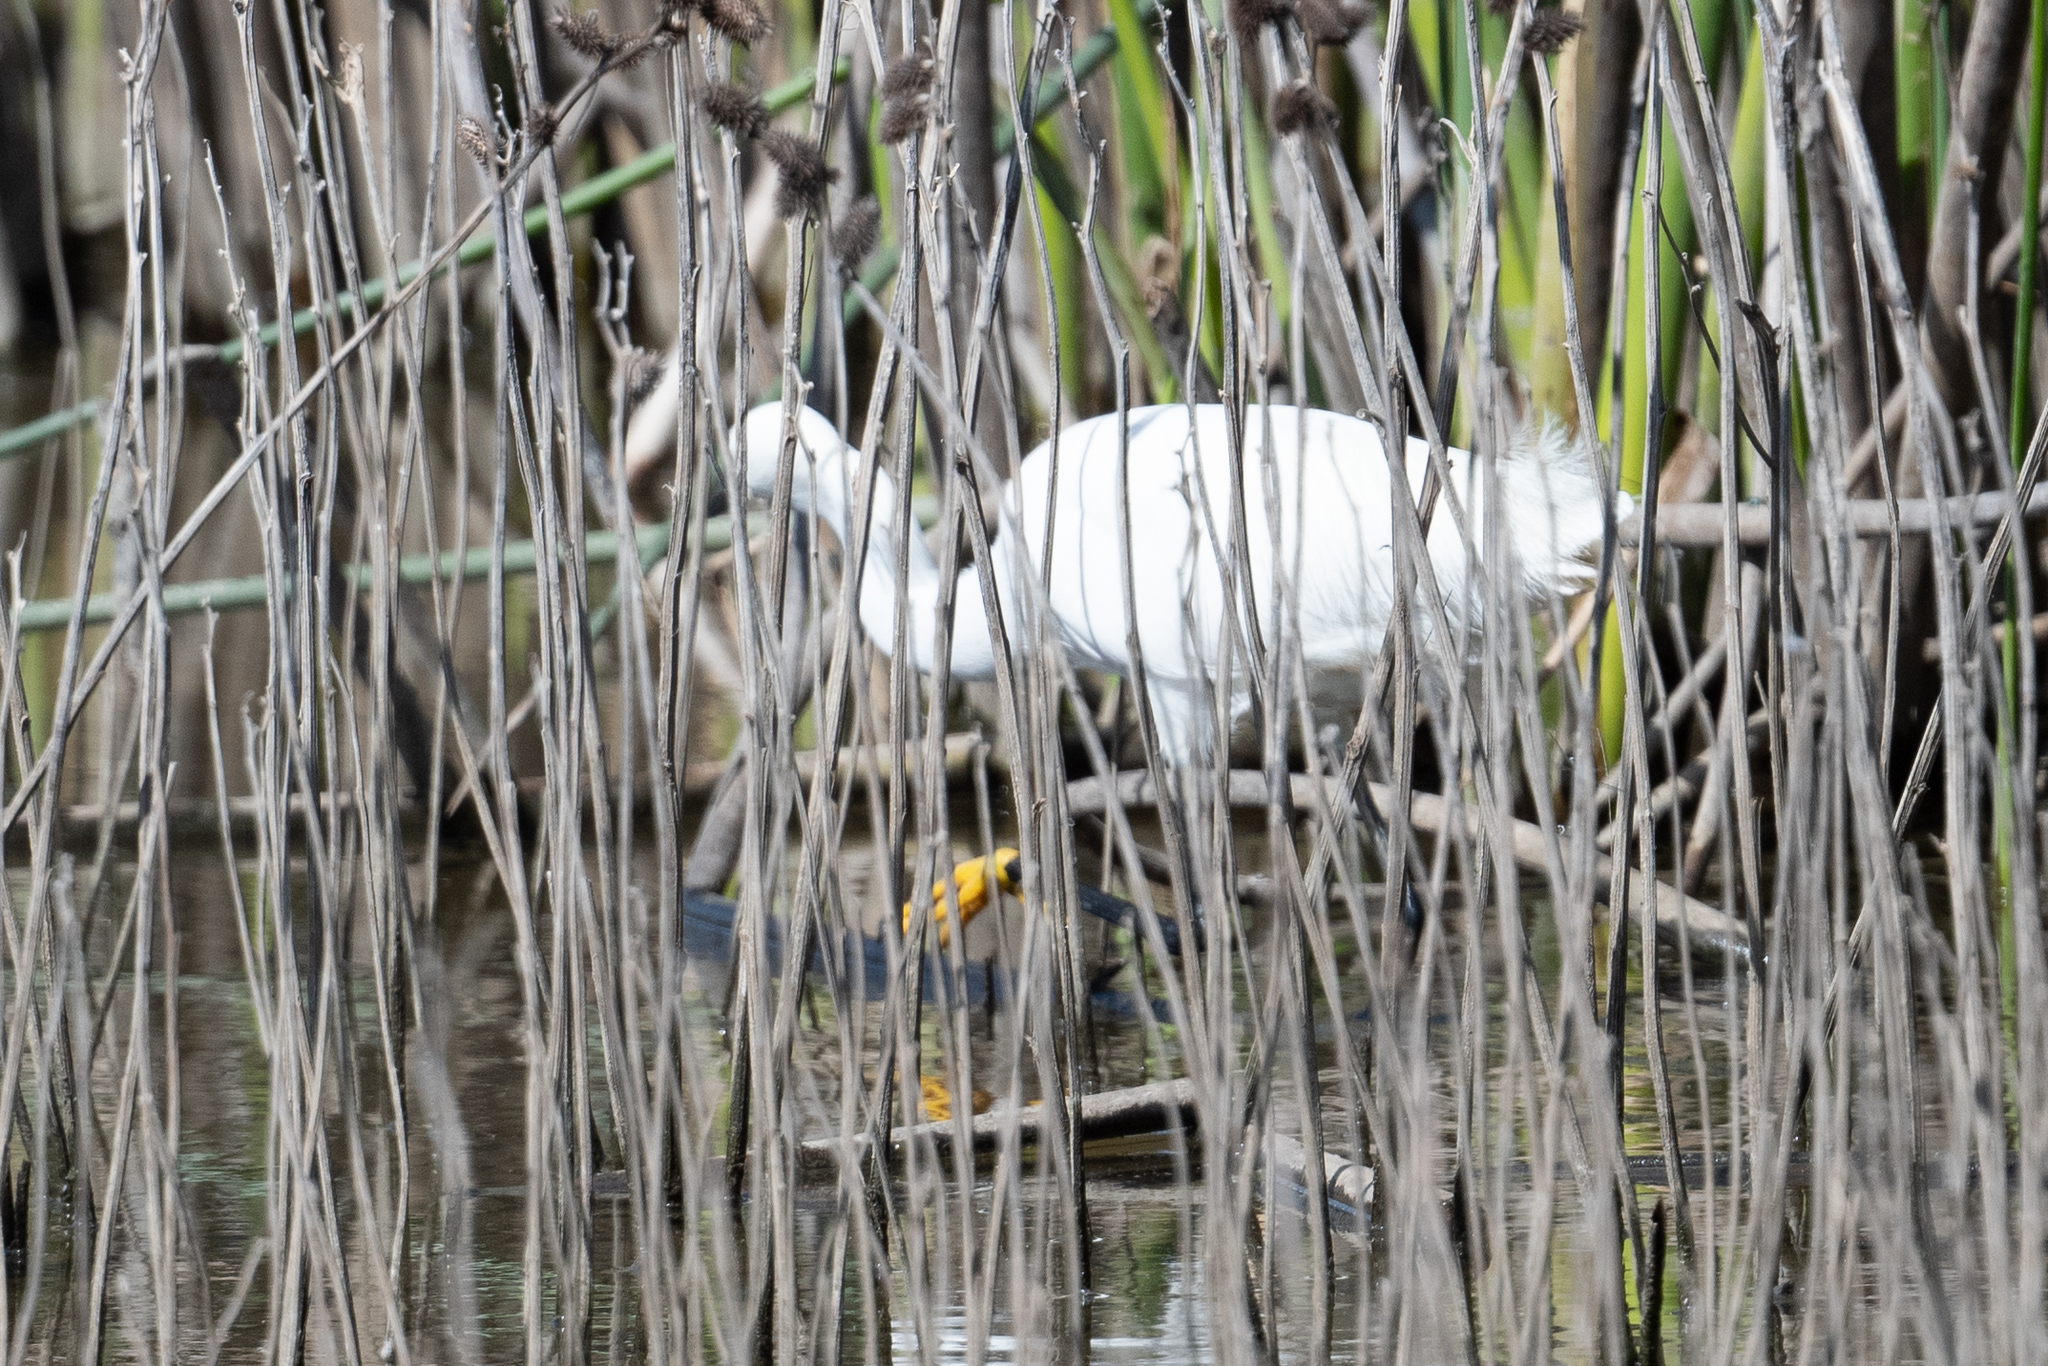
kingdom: Animalia
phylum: Chordata
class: Aves
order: Pelecaniformes
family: Ardeidae
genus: Egretta
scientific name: Egretta thula
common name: Snowy egret
